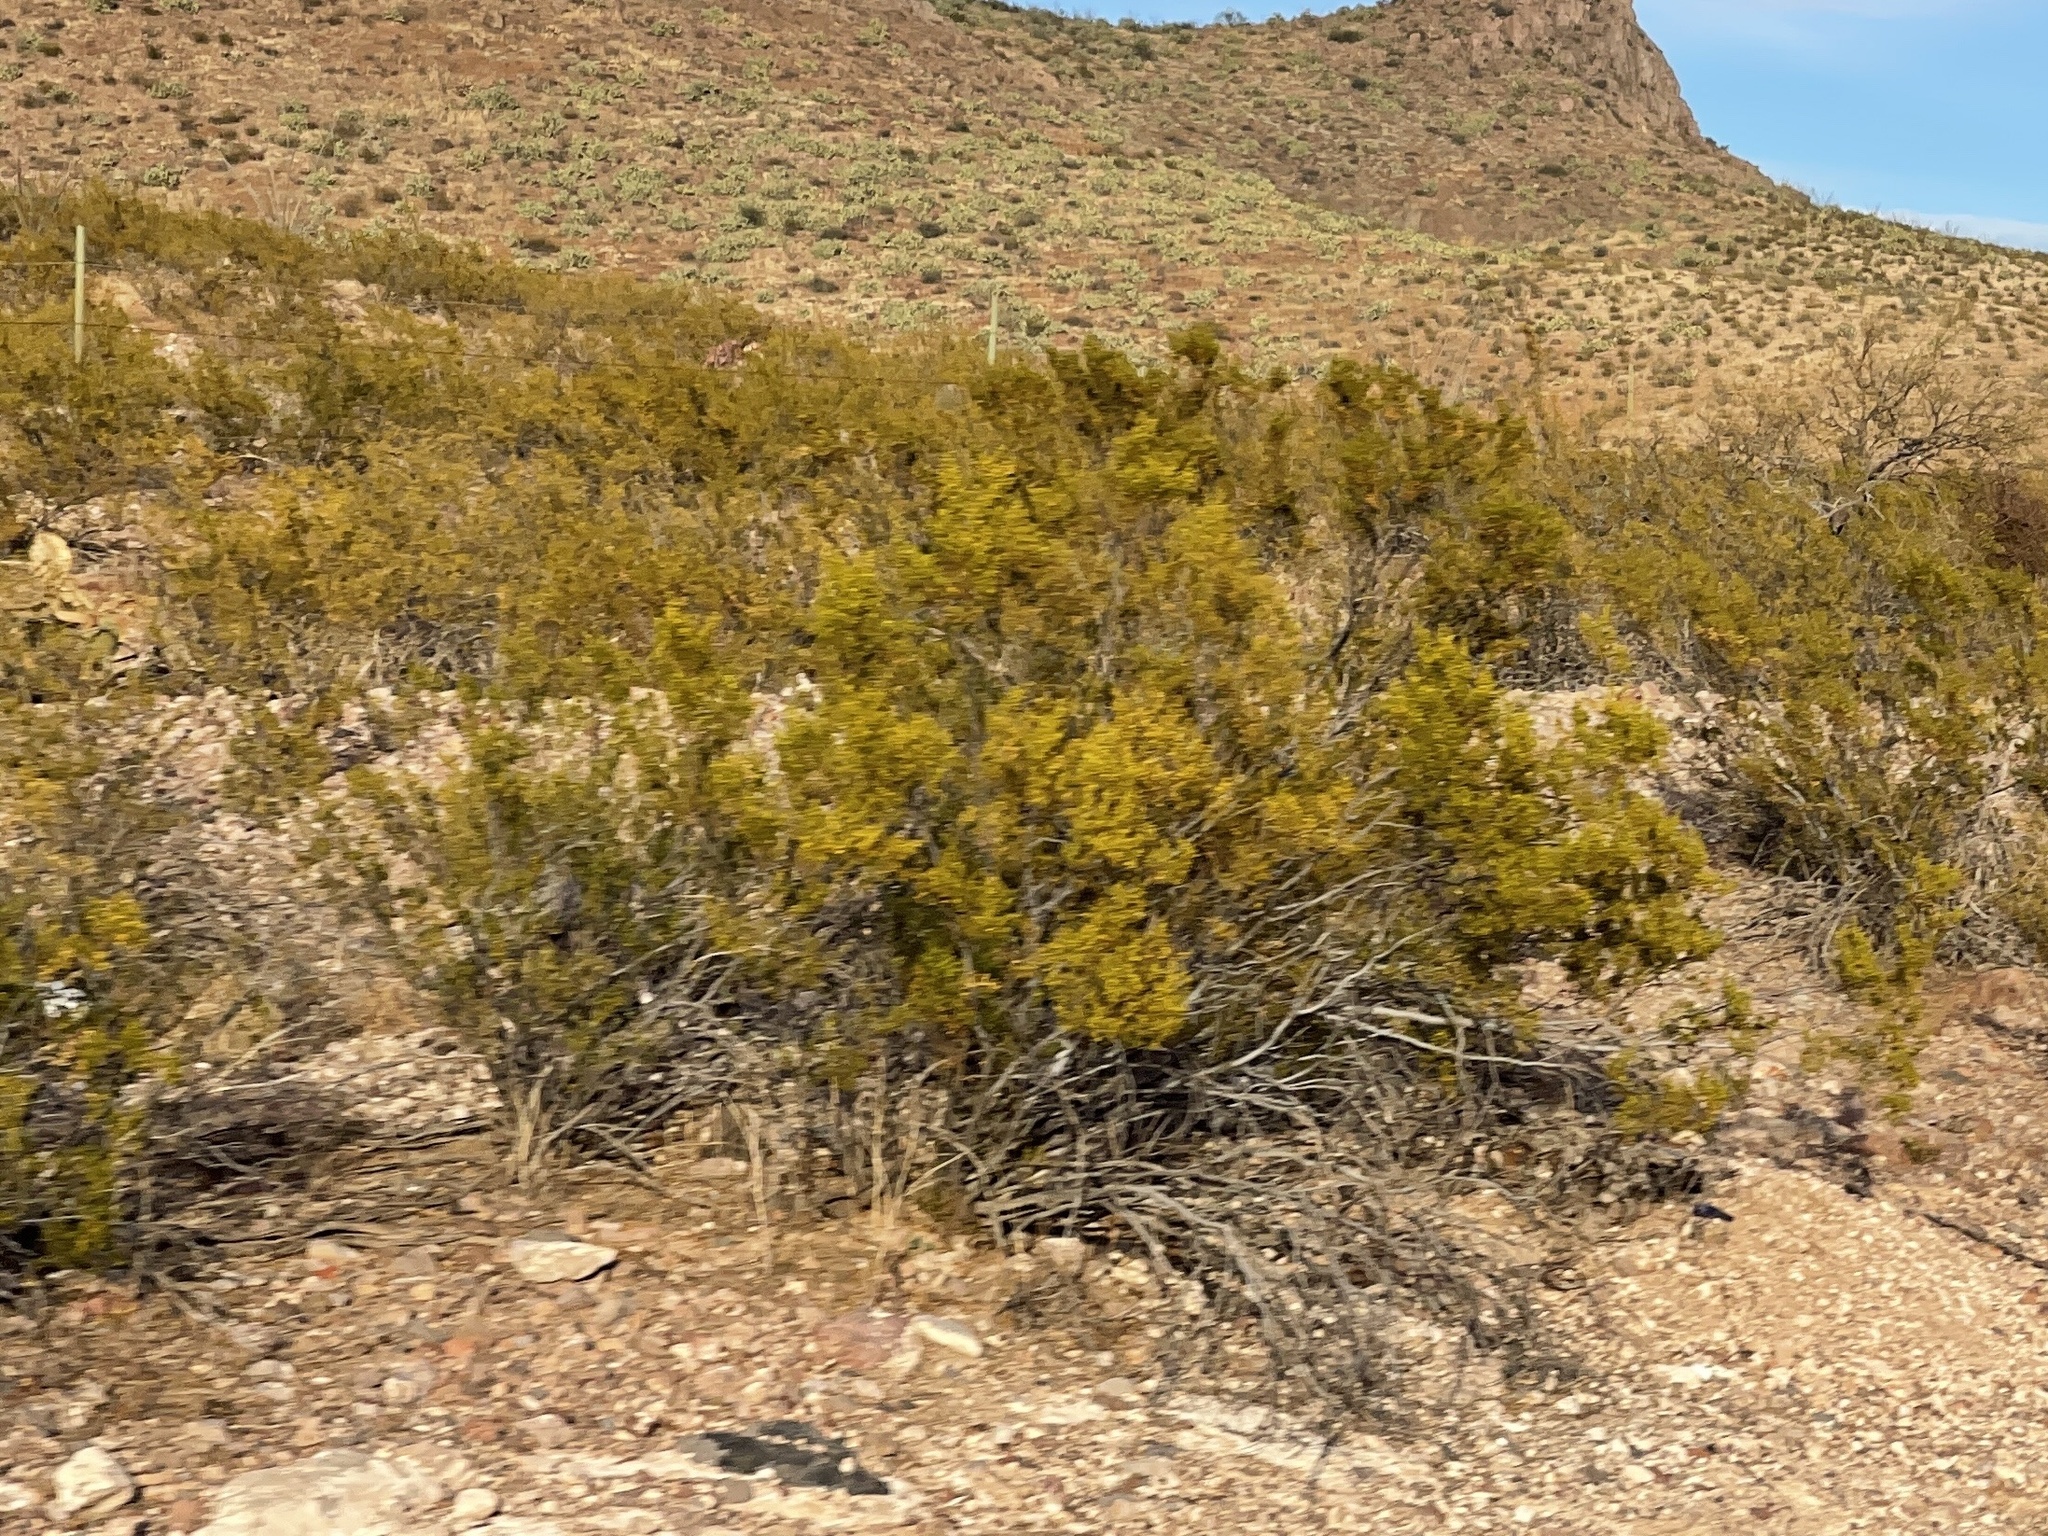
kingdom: Plantae
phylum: Tracheophyta
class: Magnoliopsida
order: Zygophyllales
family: Zygophyllaceae
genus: Larrea
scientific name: Larrea tridentata
